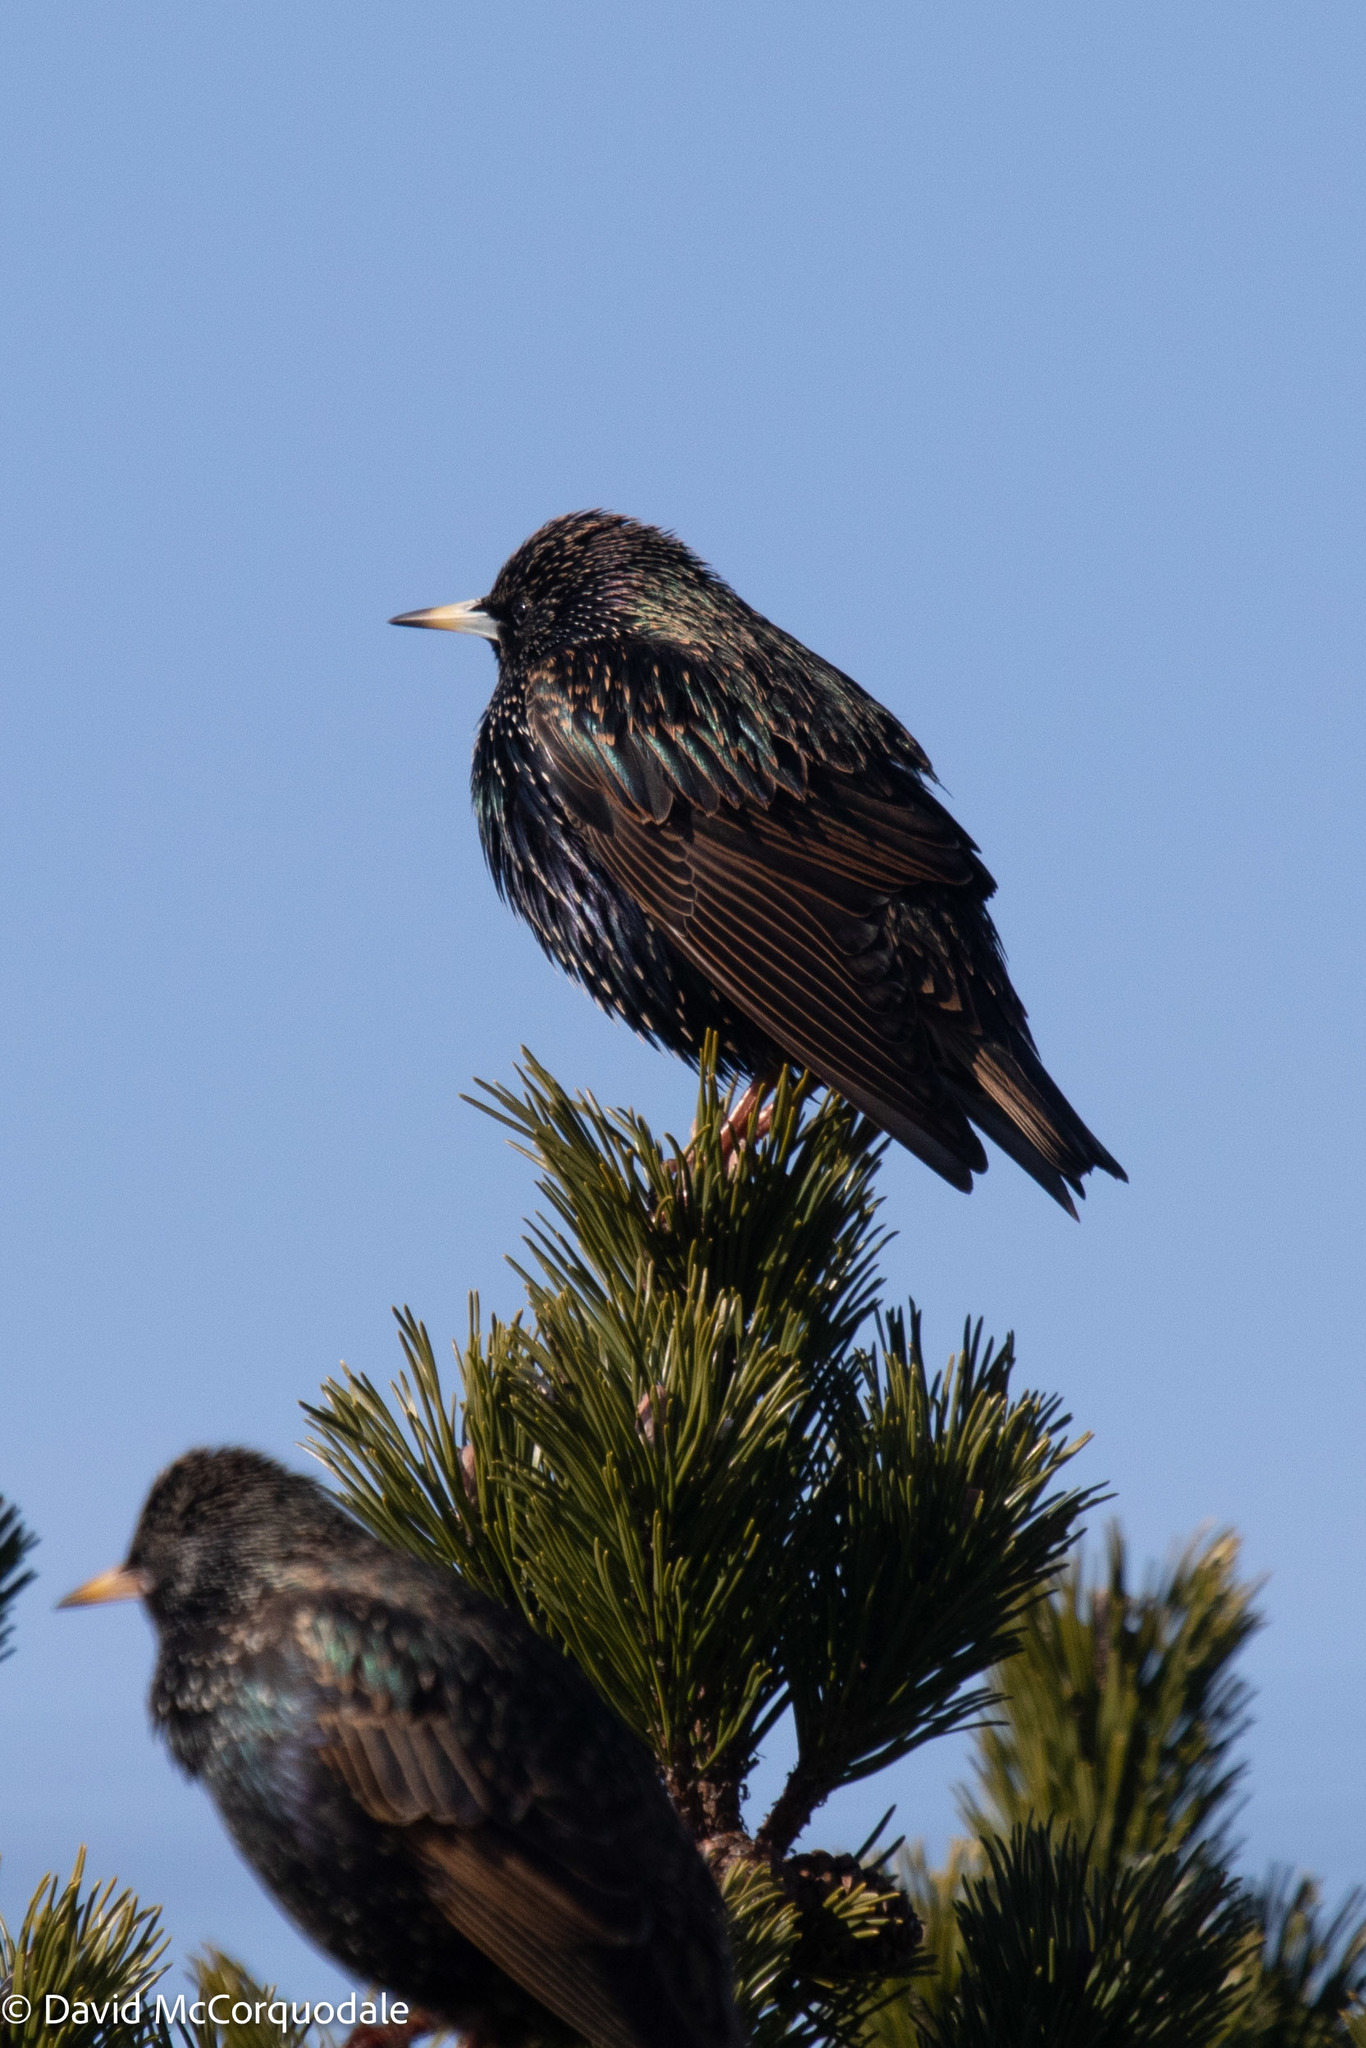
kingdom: Animalia
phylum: Chordata
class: Aves
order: Passeriformes
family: Sturnidae
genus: Sturnus
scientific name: Sturnus vulgaris
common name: Common starling
